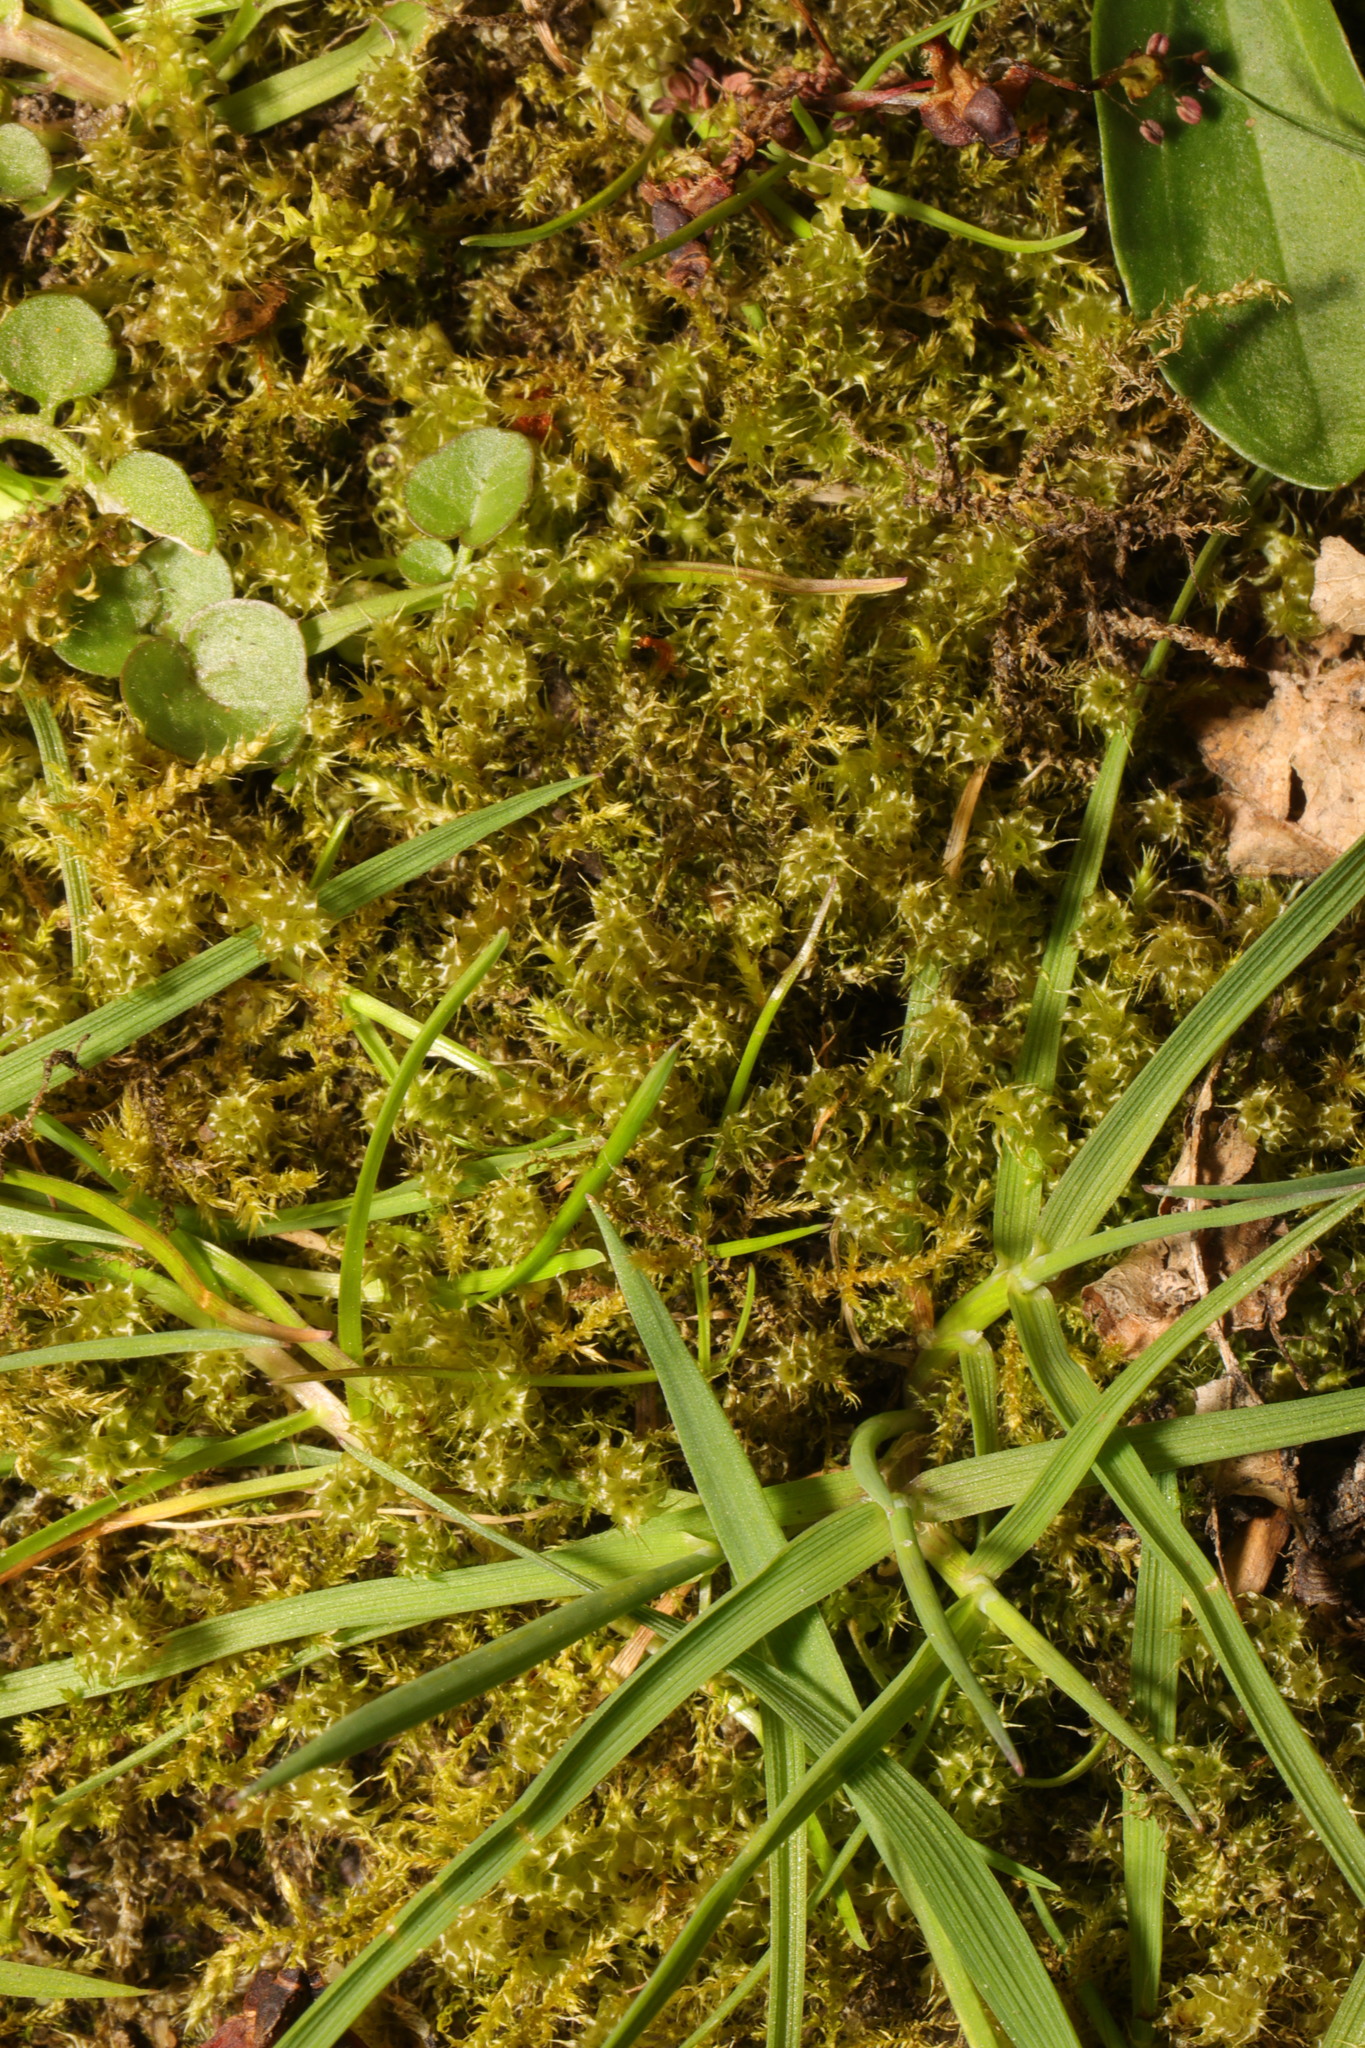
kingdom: Plantae
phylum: Bryophyta
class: Bryopsida
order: Hypnales
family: Hylocomiaceae
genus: Rhytidiadelphus
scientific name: Rhytidiadelphus squarrosus
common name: Springy turf-moss
